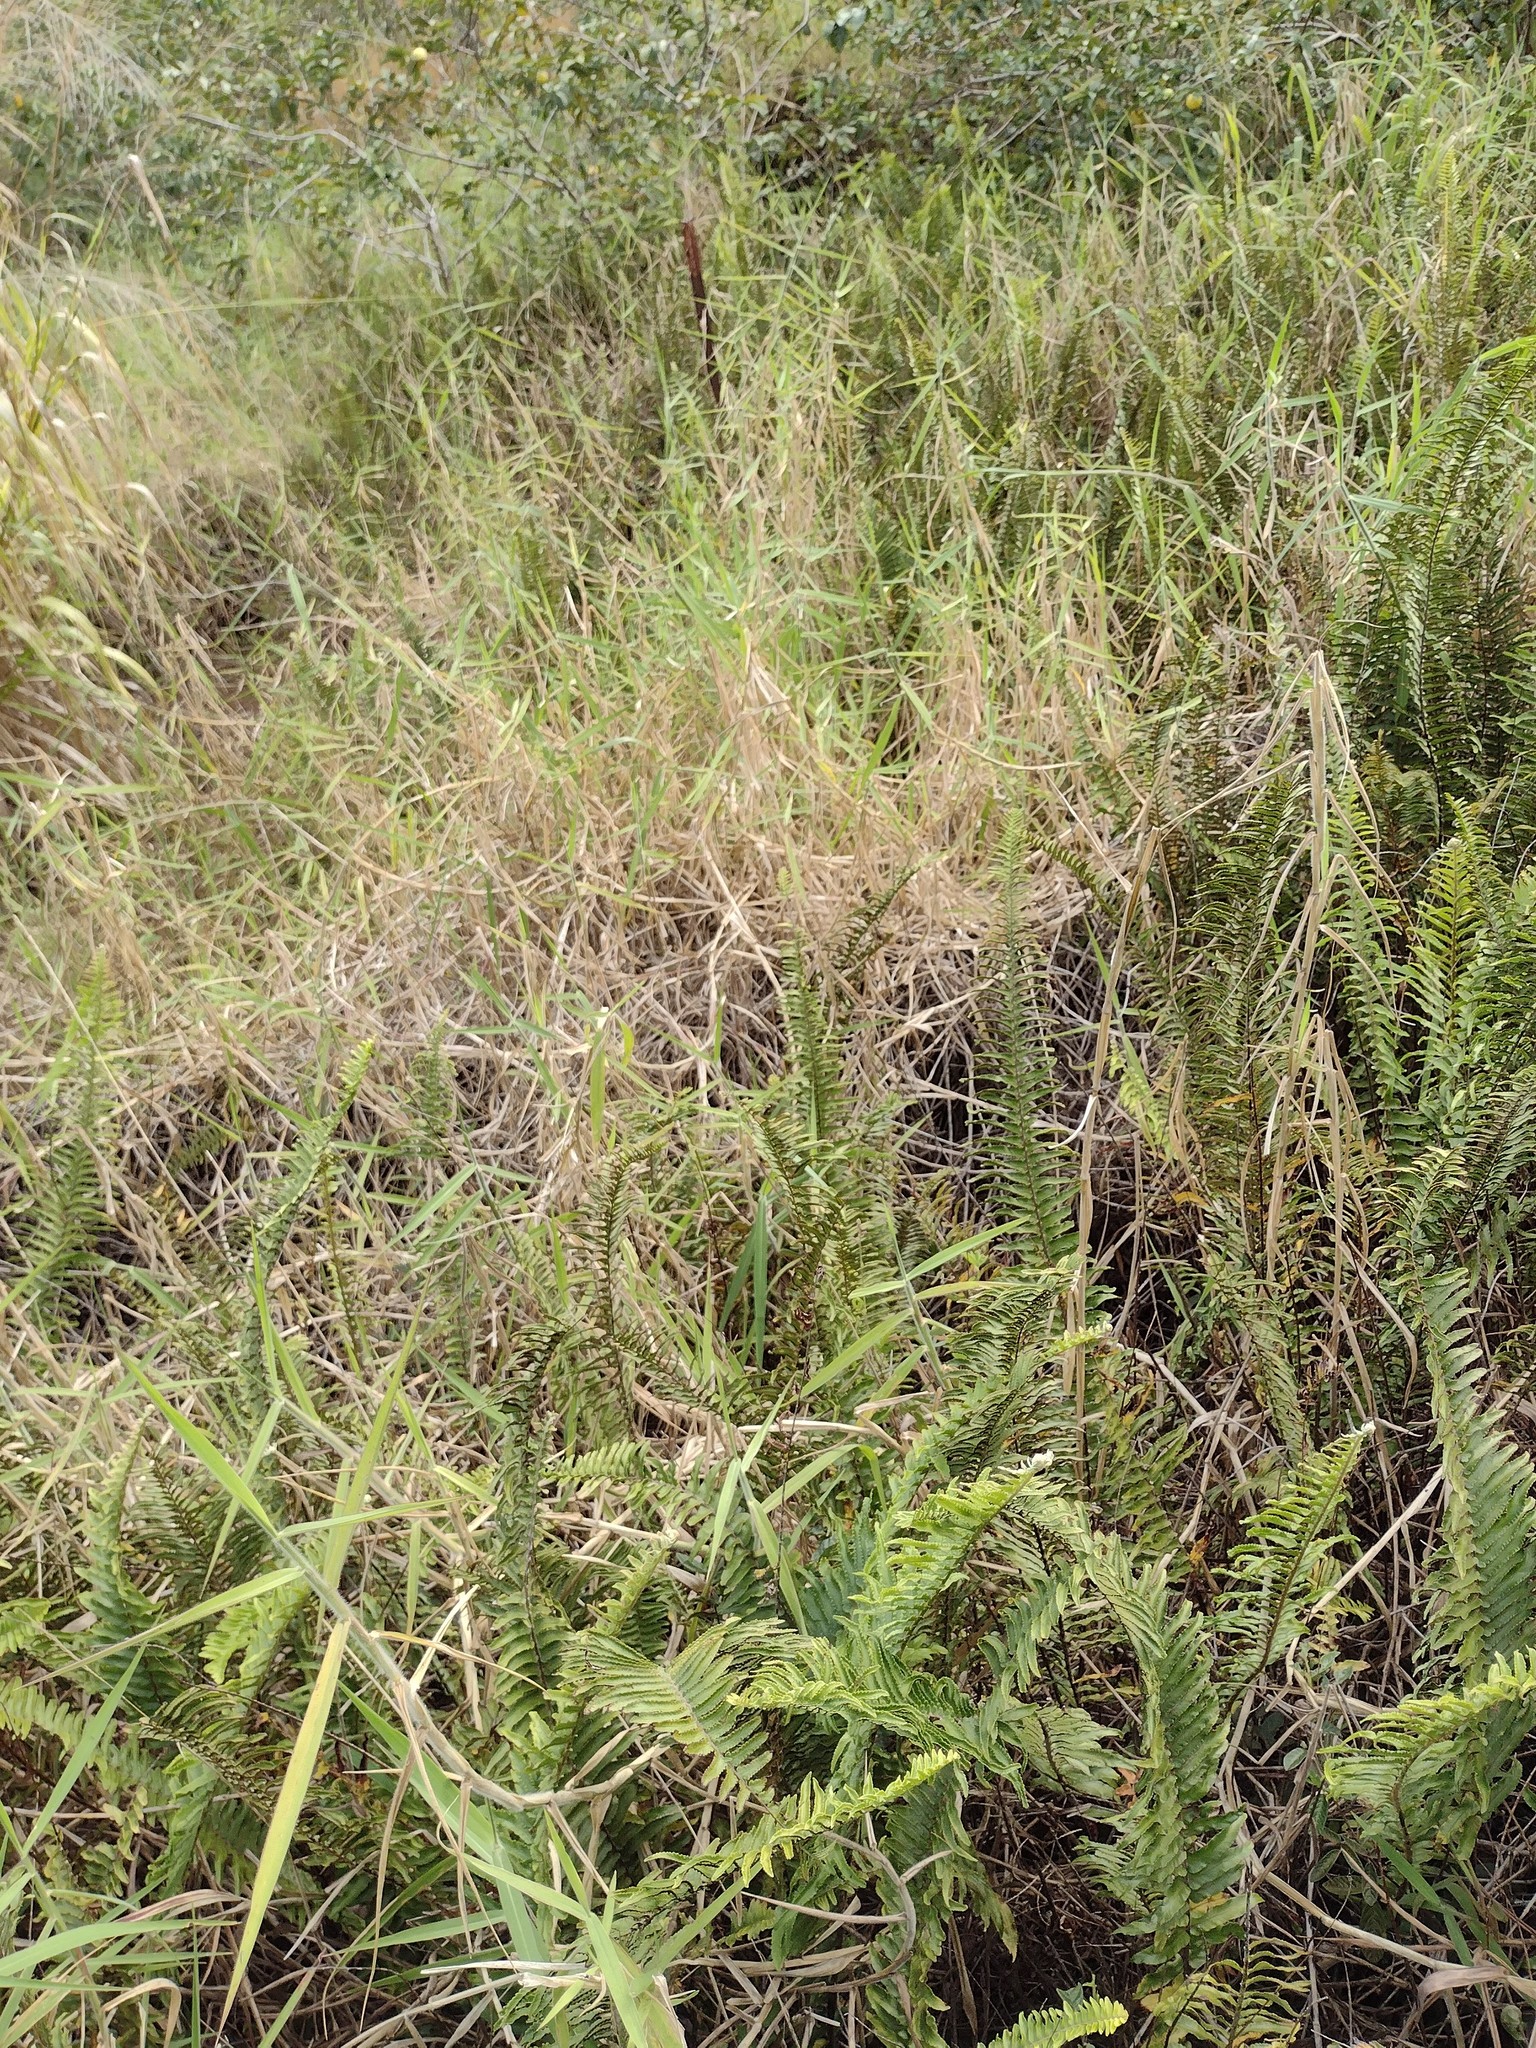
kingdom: Plantae
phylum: Tracheophyta
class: Liliopsida
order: Poales
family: Poaceae
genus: Urochloa
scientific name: Urochloa mutica
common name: Para grass
